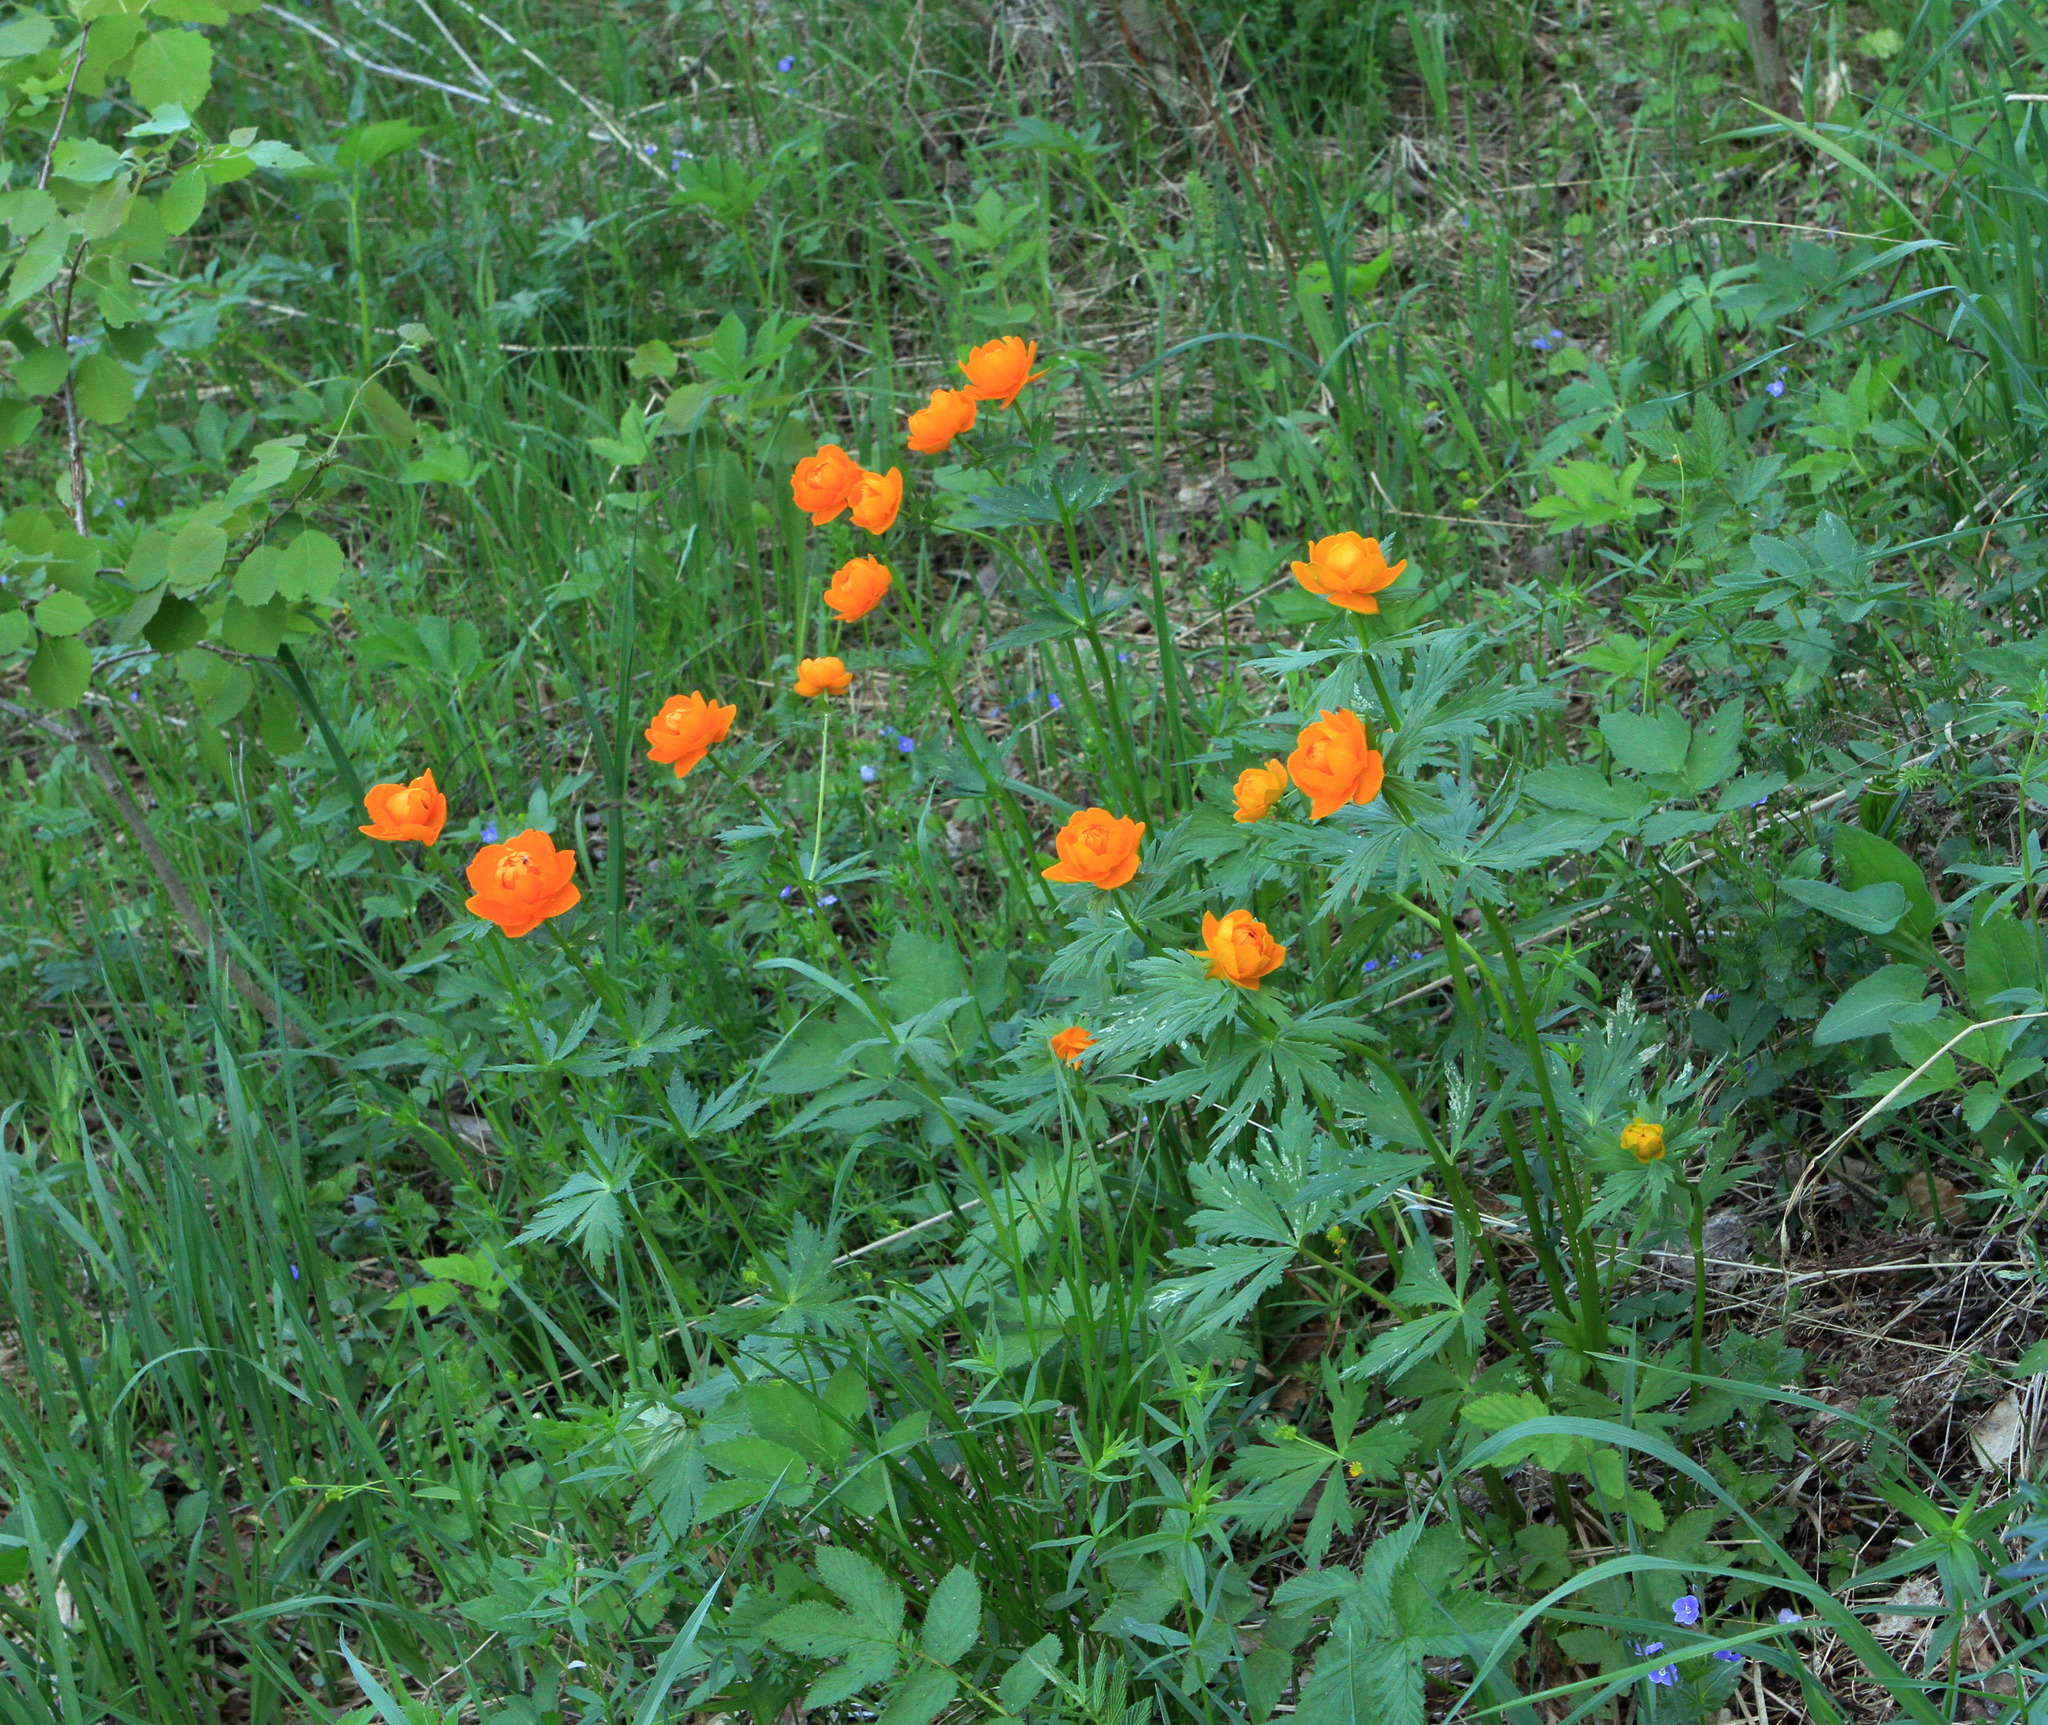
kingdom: Plantae
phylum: Tracheophyta
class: Magnoliopsida
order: Ranunculales
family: Ranunculaceae
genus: Trollius
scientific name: Trollius asiaticus
